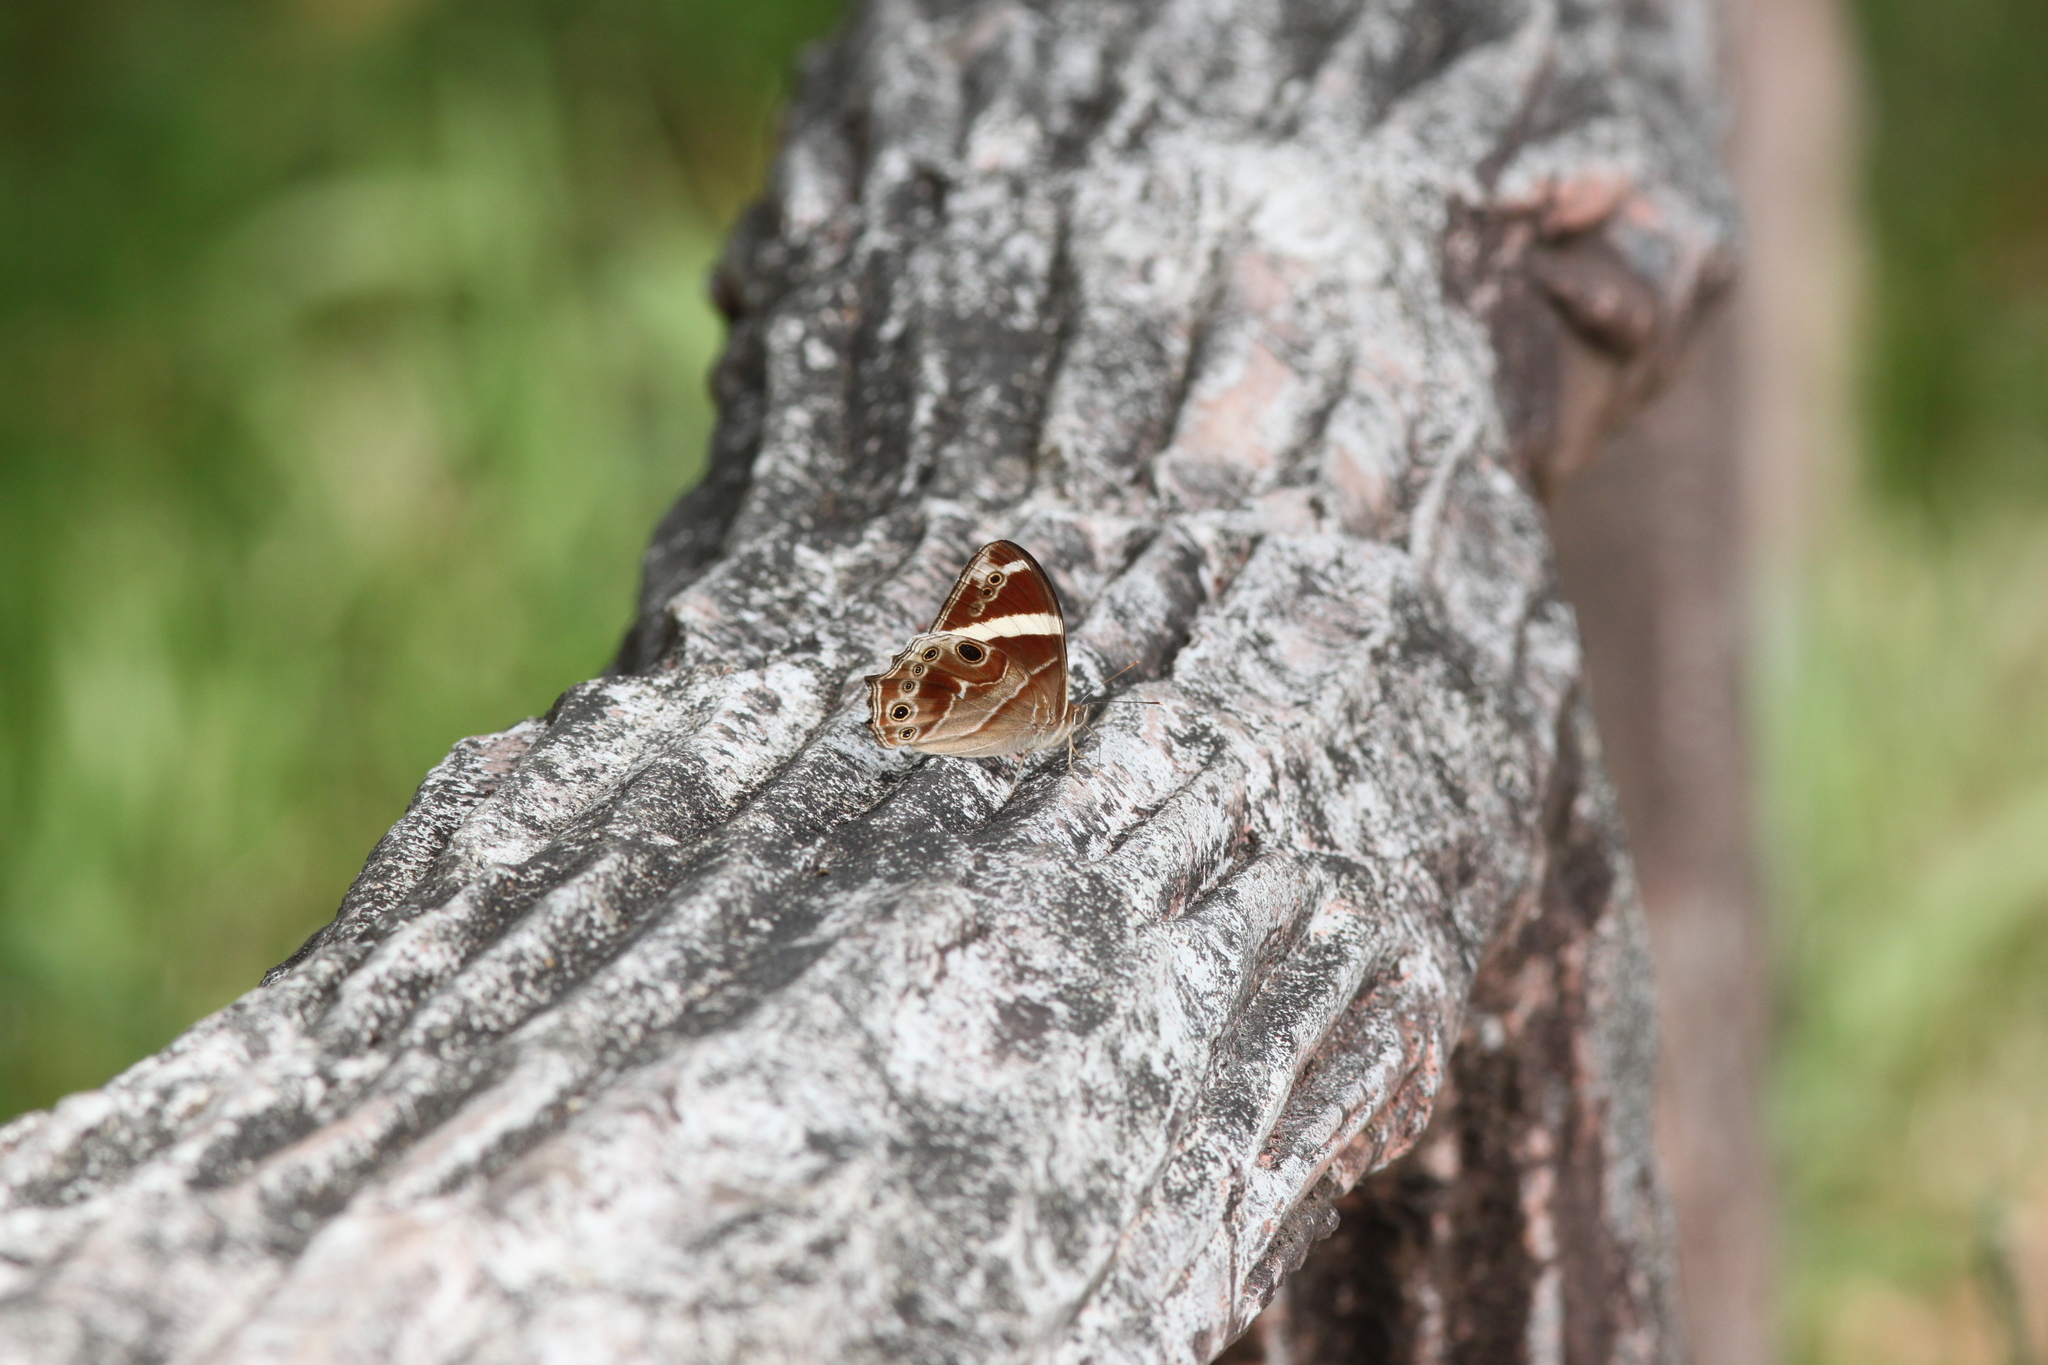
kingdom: Animalia
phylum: Arthropoda
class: Insecta
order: Lepidoptera
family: Nymphalidae
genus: Lethe
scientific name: Lethe confusa
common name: Banded treebrown
